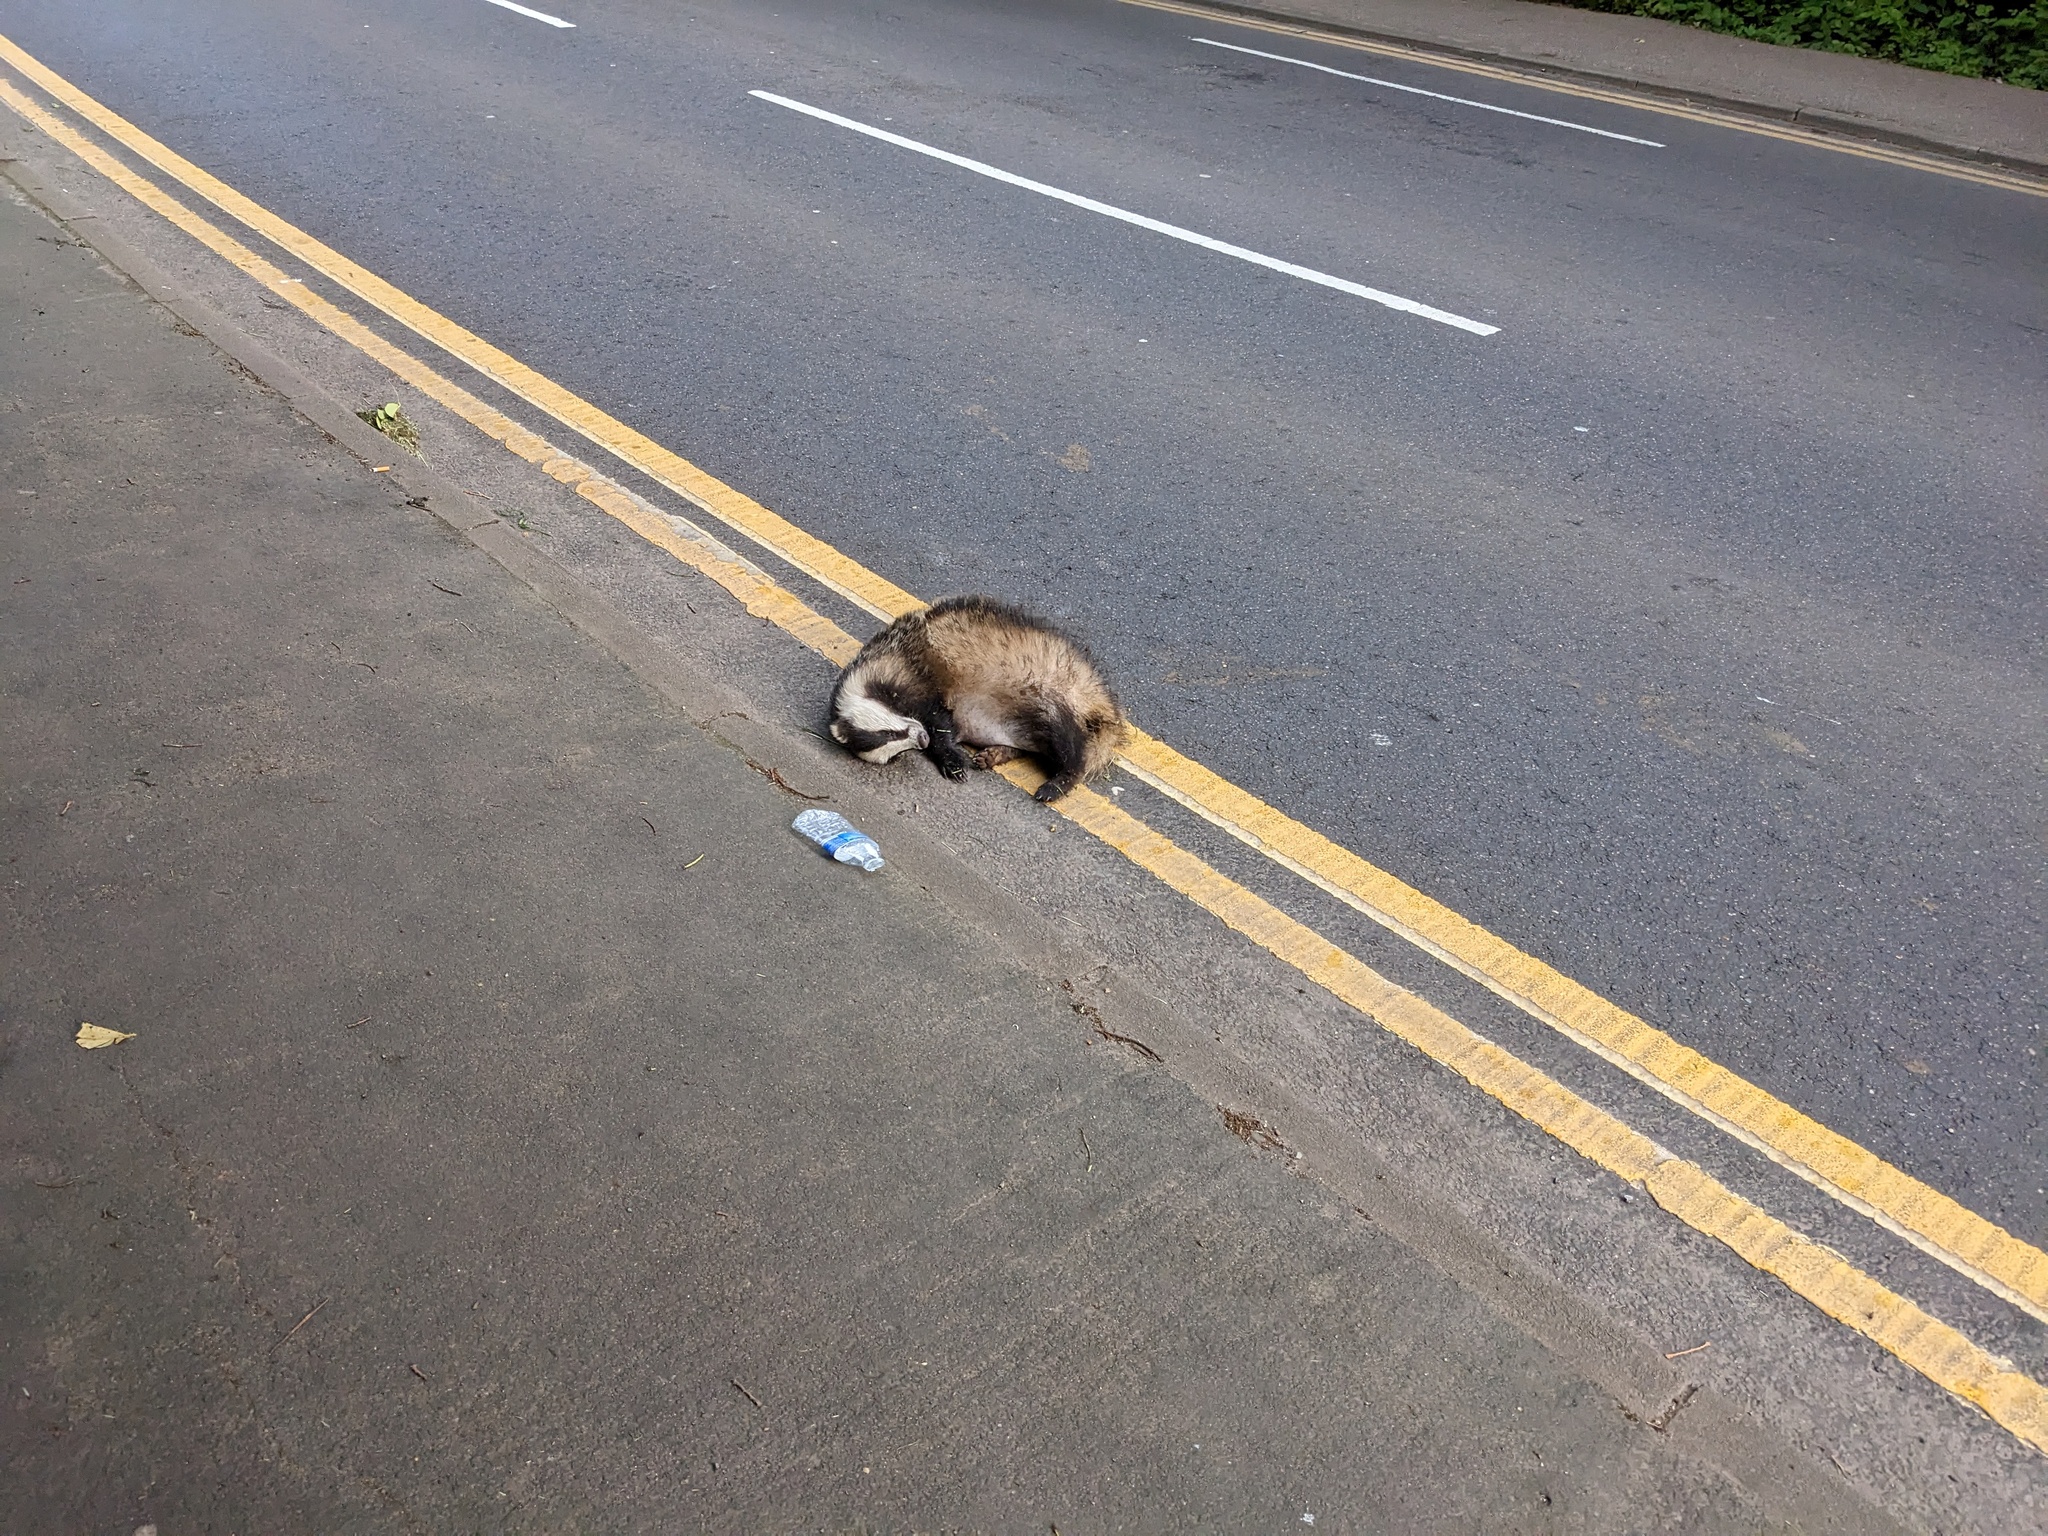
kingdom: Animalia
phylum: Chordata
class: Mammalia
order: Carnivora
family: Mustelidae
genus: Meles
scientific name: Meles meles
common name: Eurasian badger
